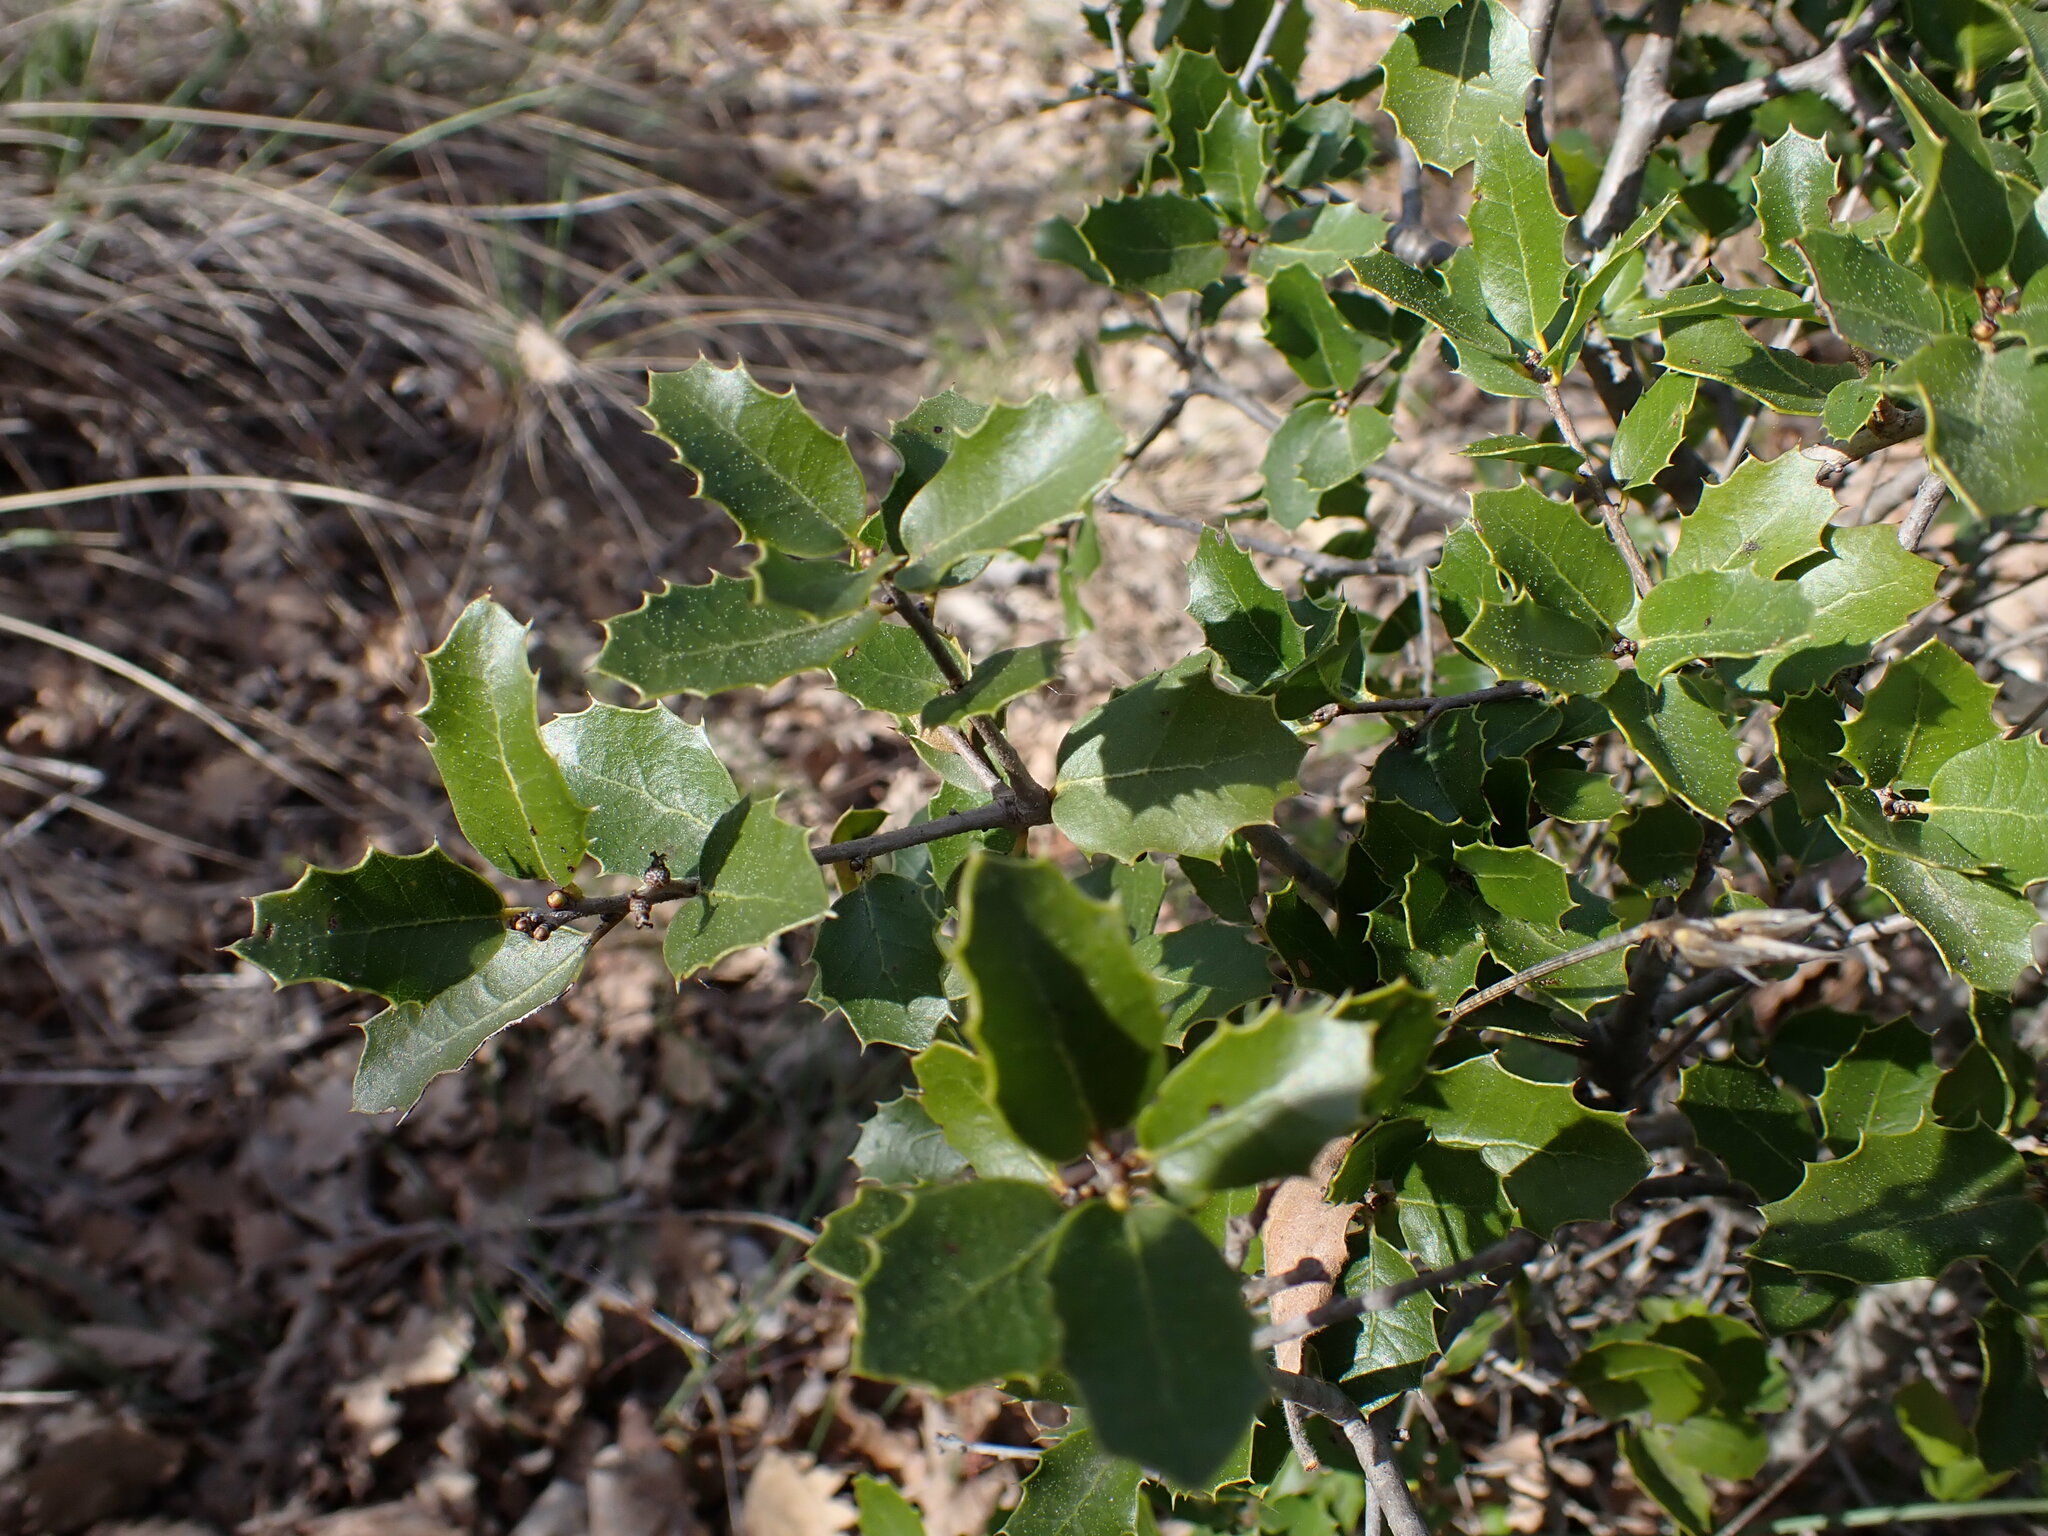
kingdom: Plantae
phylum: Tracheophyta
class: Magnoliopsida
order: Fagales
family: Fagaceae
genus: Quercus
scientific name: Quercus coccifera
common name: Kermes oak
